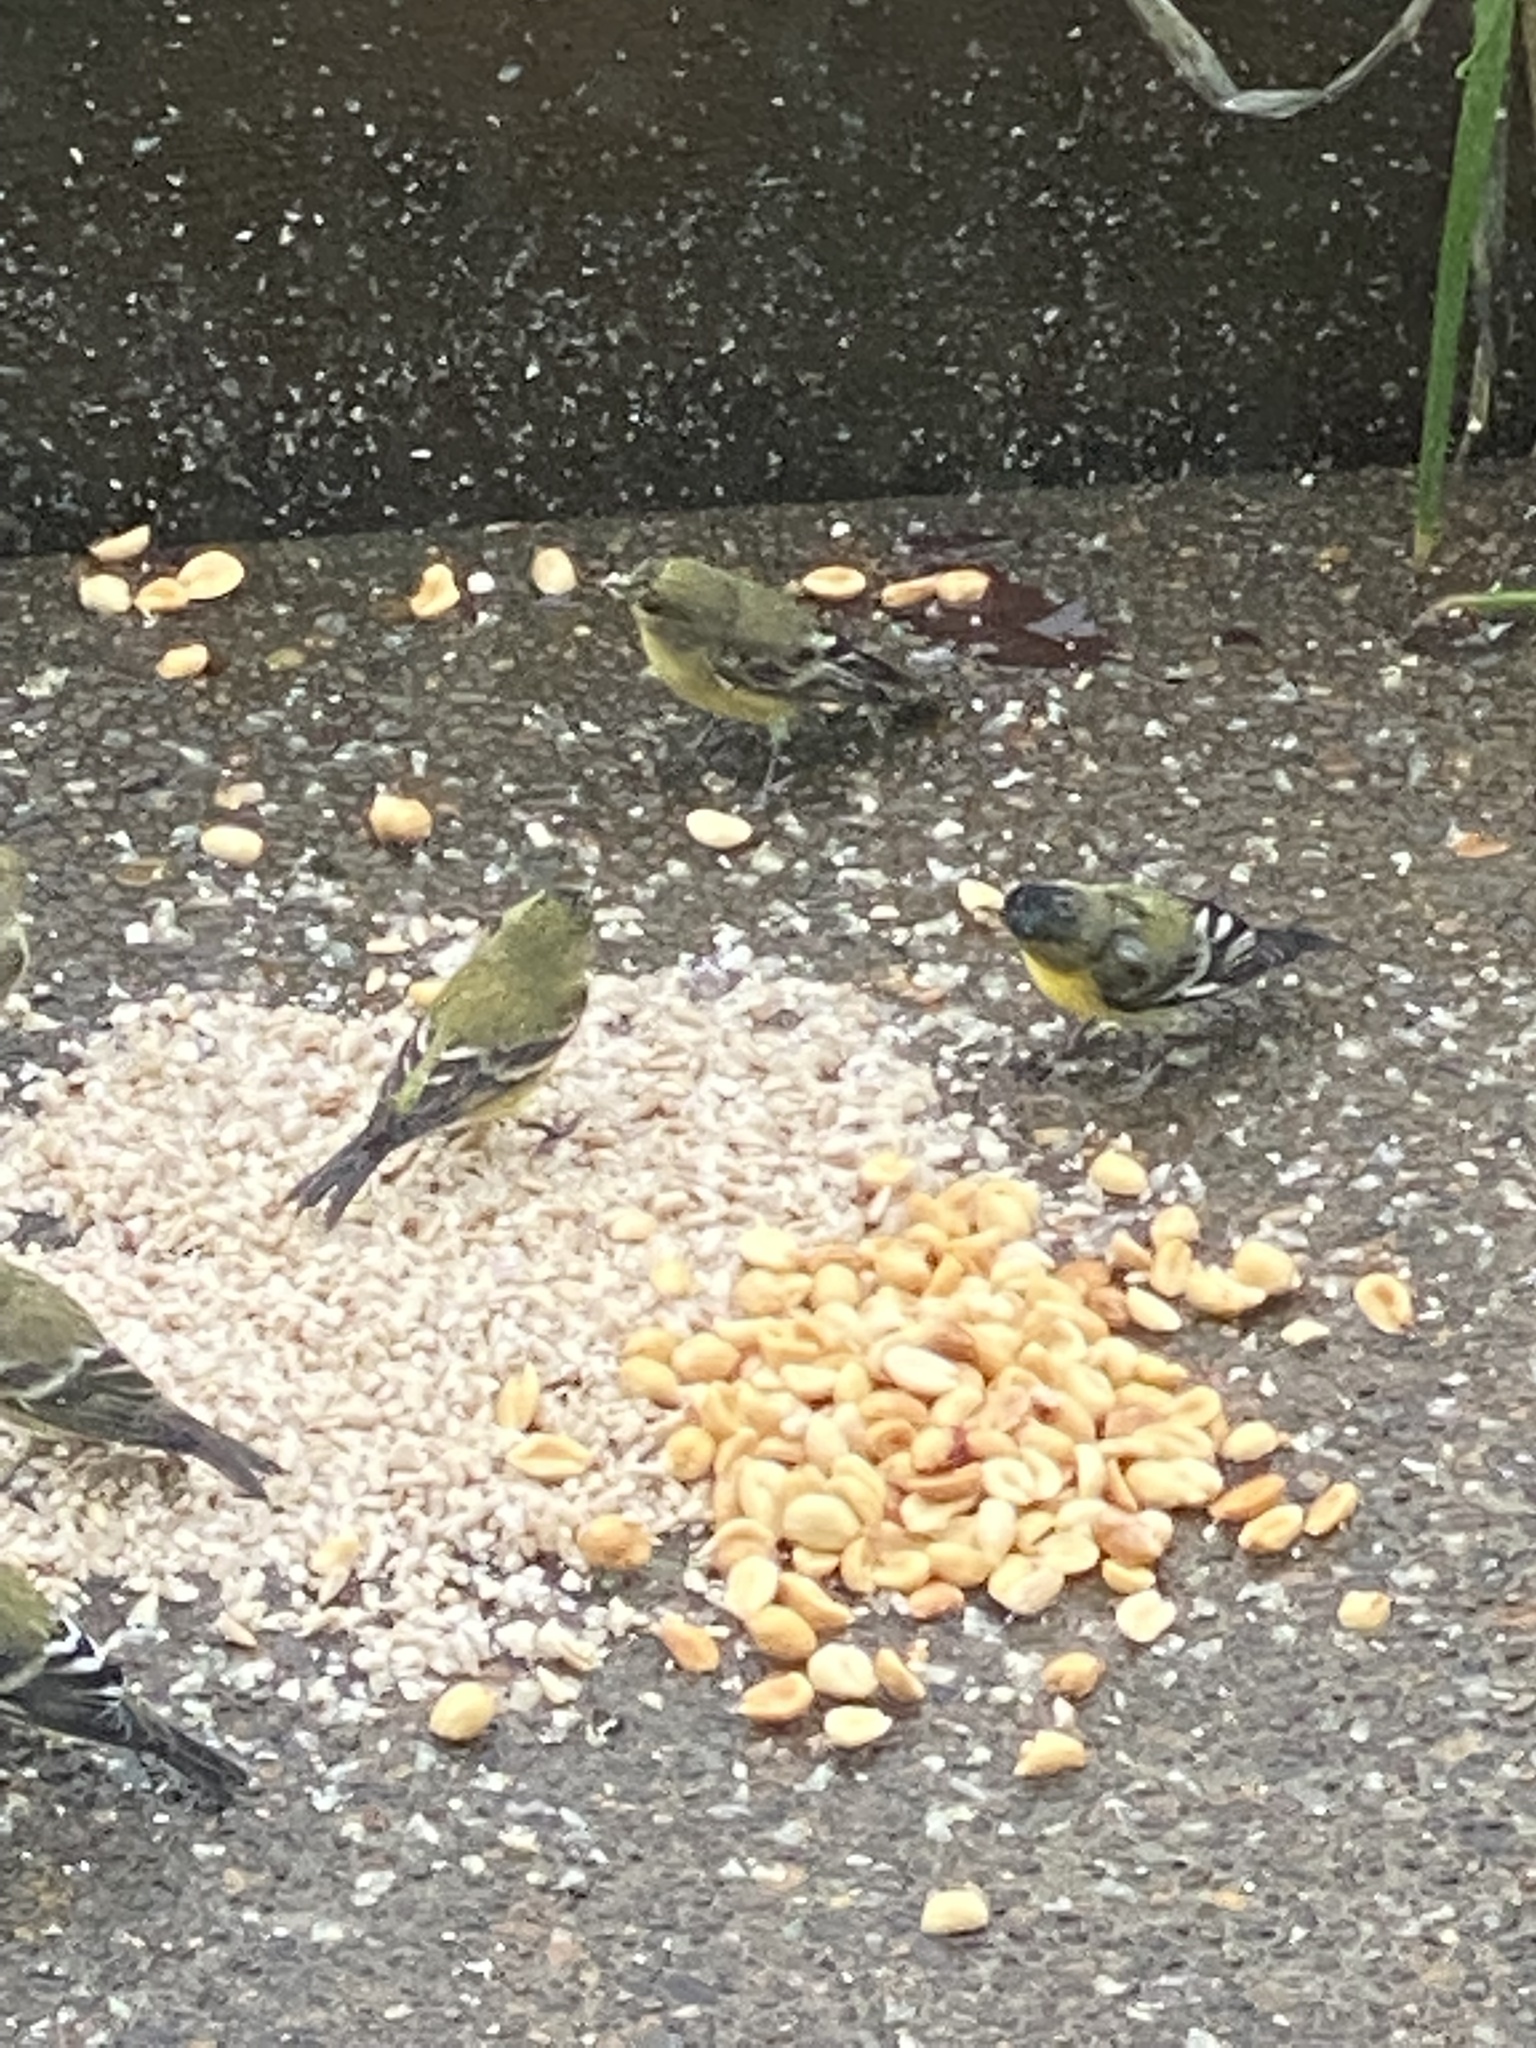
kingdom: Animalia
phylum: Chordata
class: Aves
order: Passeriformes
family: Fringillidae
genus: Spinus
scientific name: Spinus psaltria
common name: Lesser goldfinch
